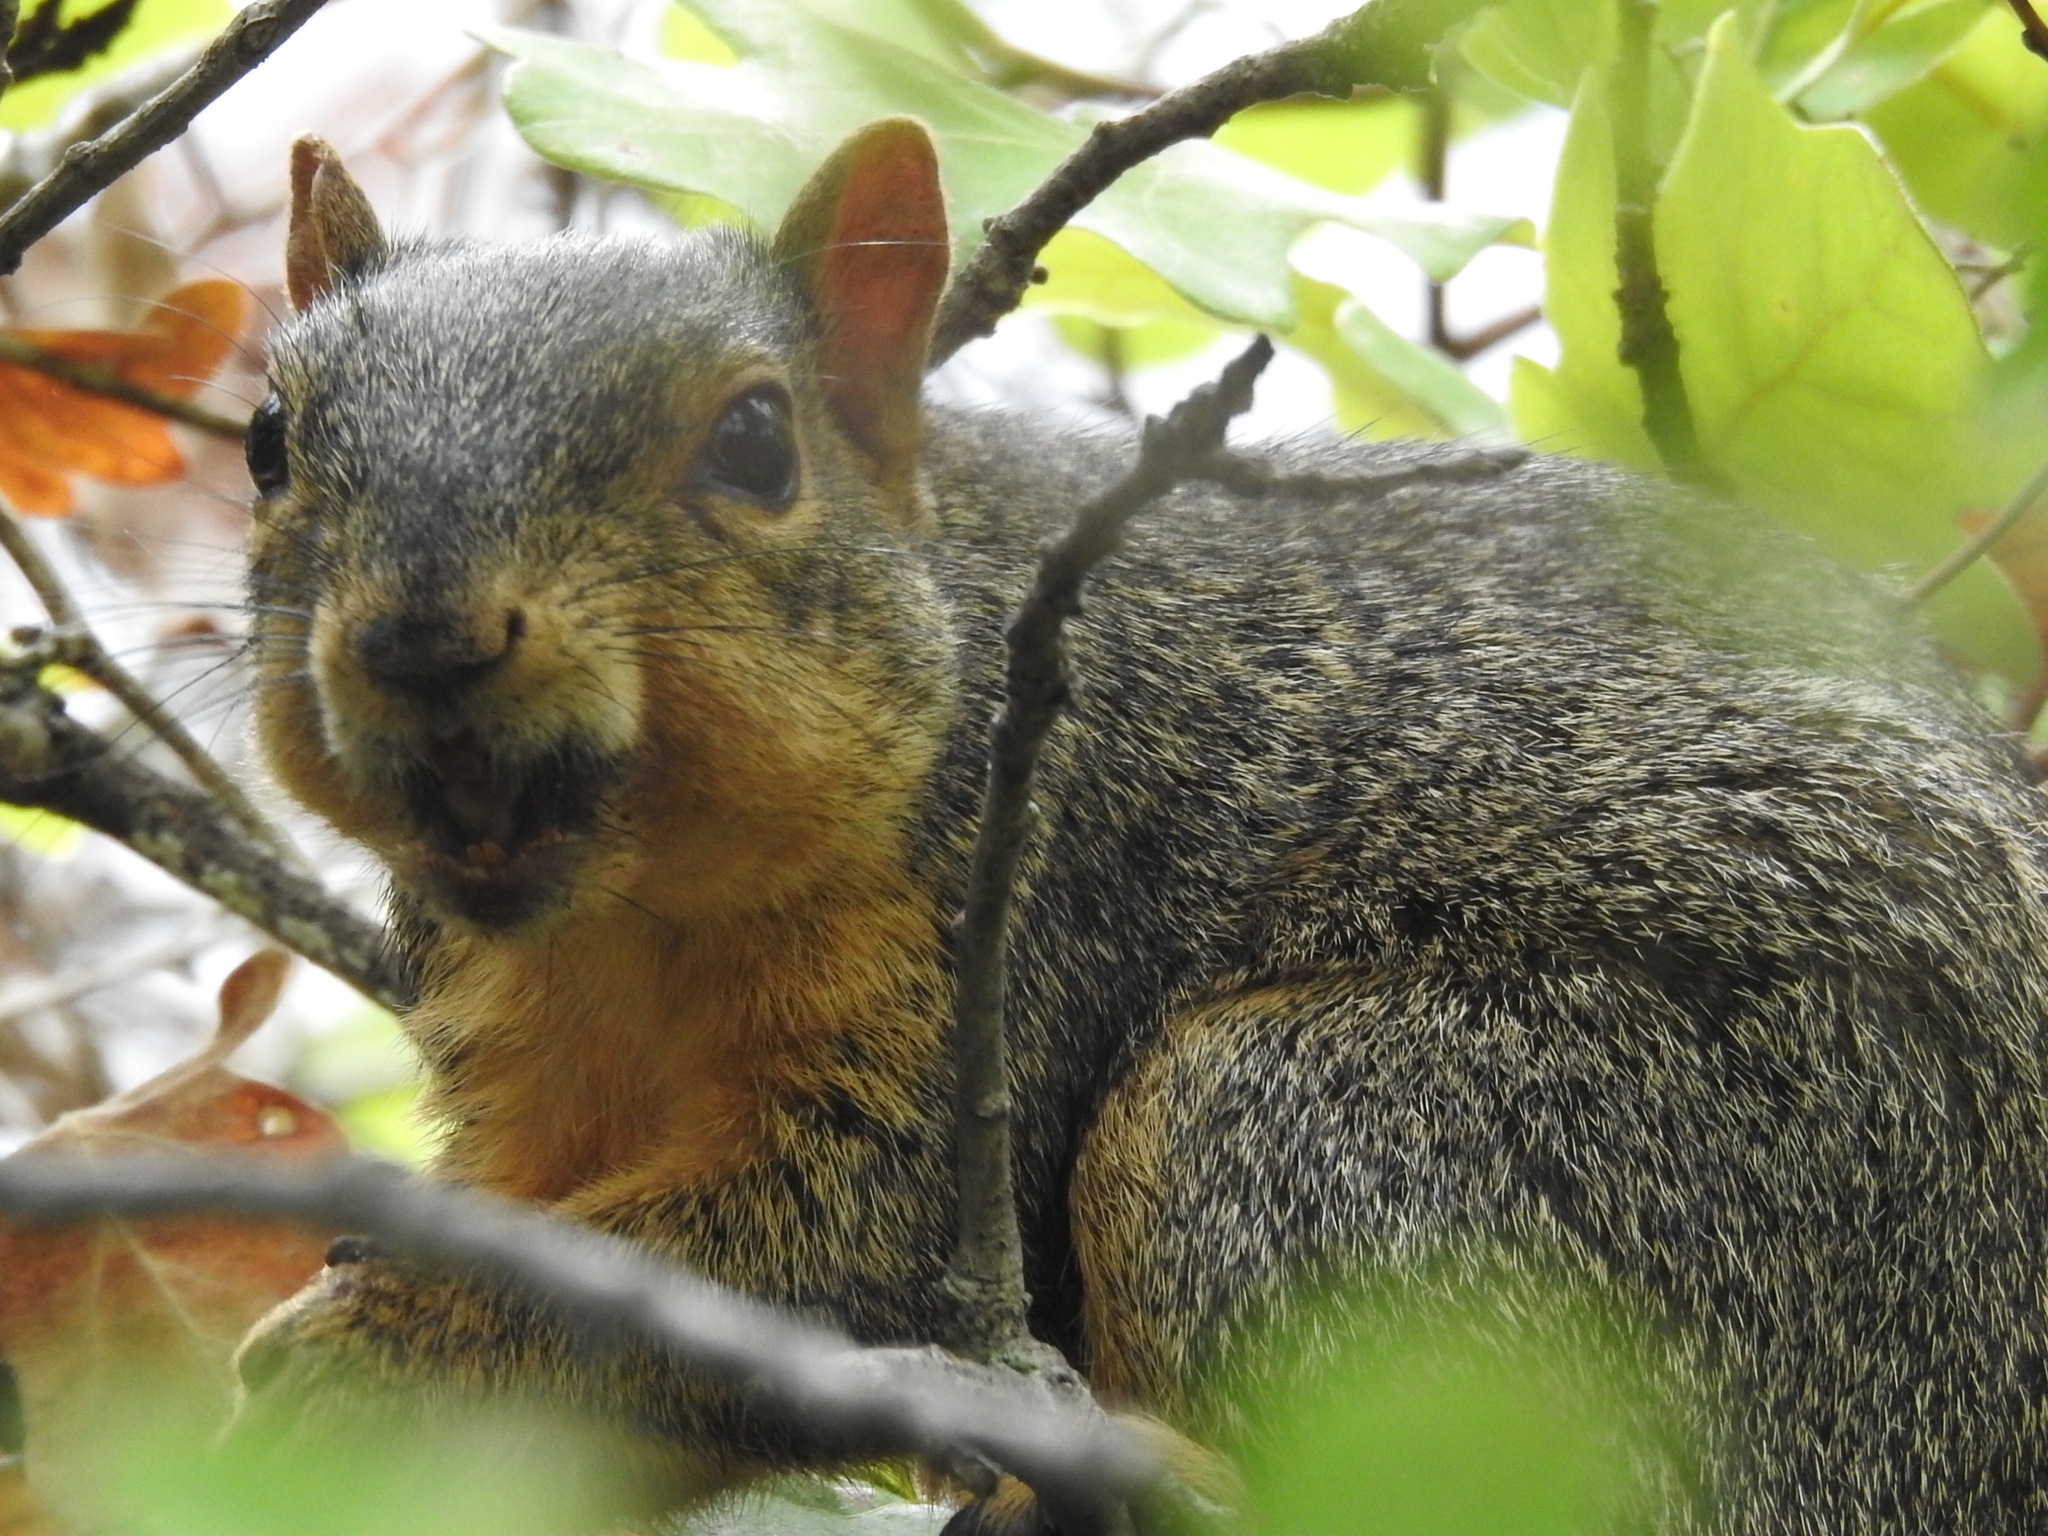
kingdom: Animalia
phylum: Chordata
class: Mammalia
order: Rodentia
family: Sciuridae
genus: Sciurus
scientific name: Sciurus niger
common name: Fox squirrel
